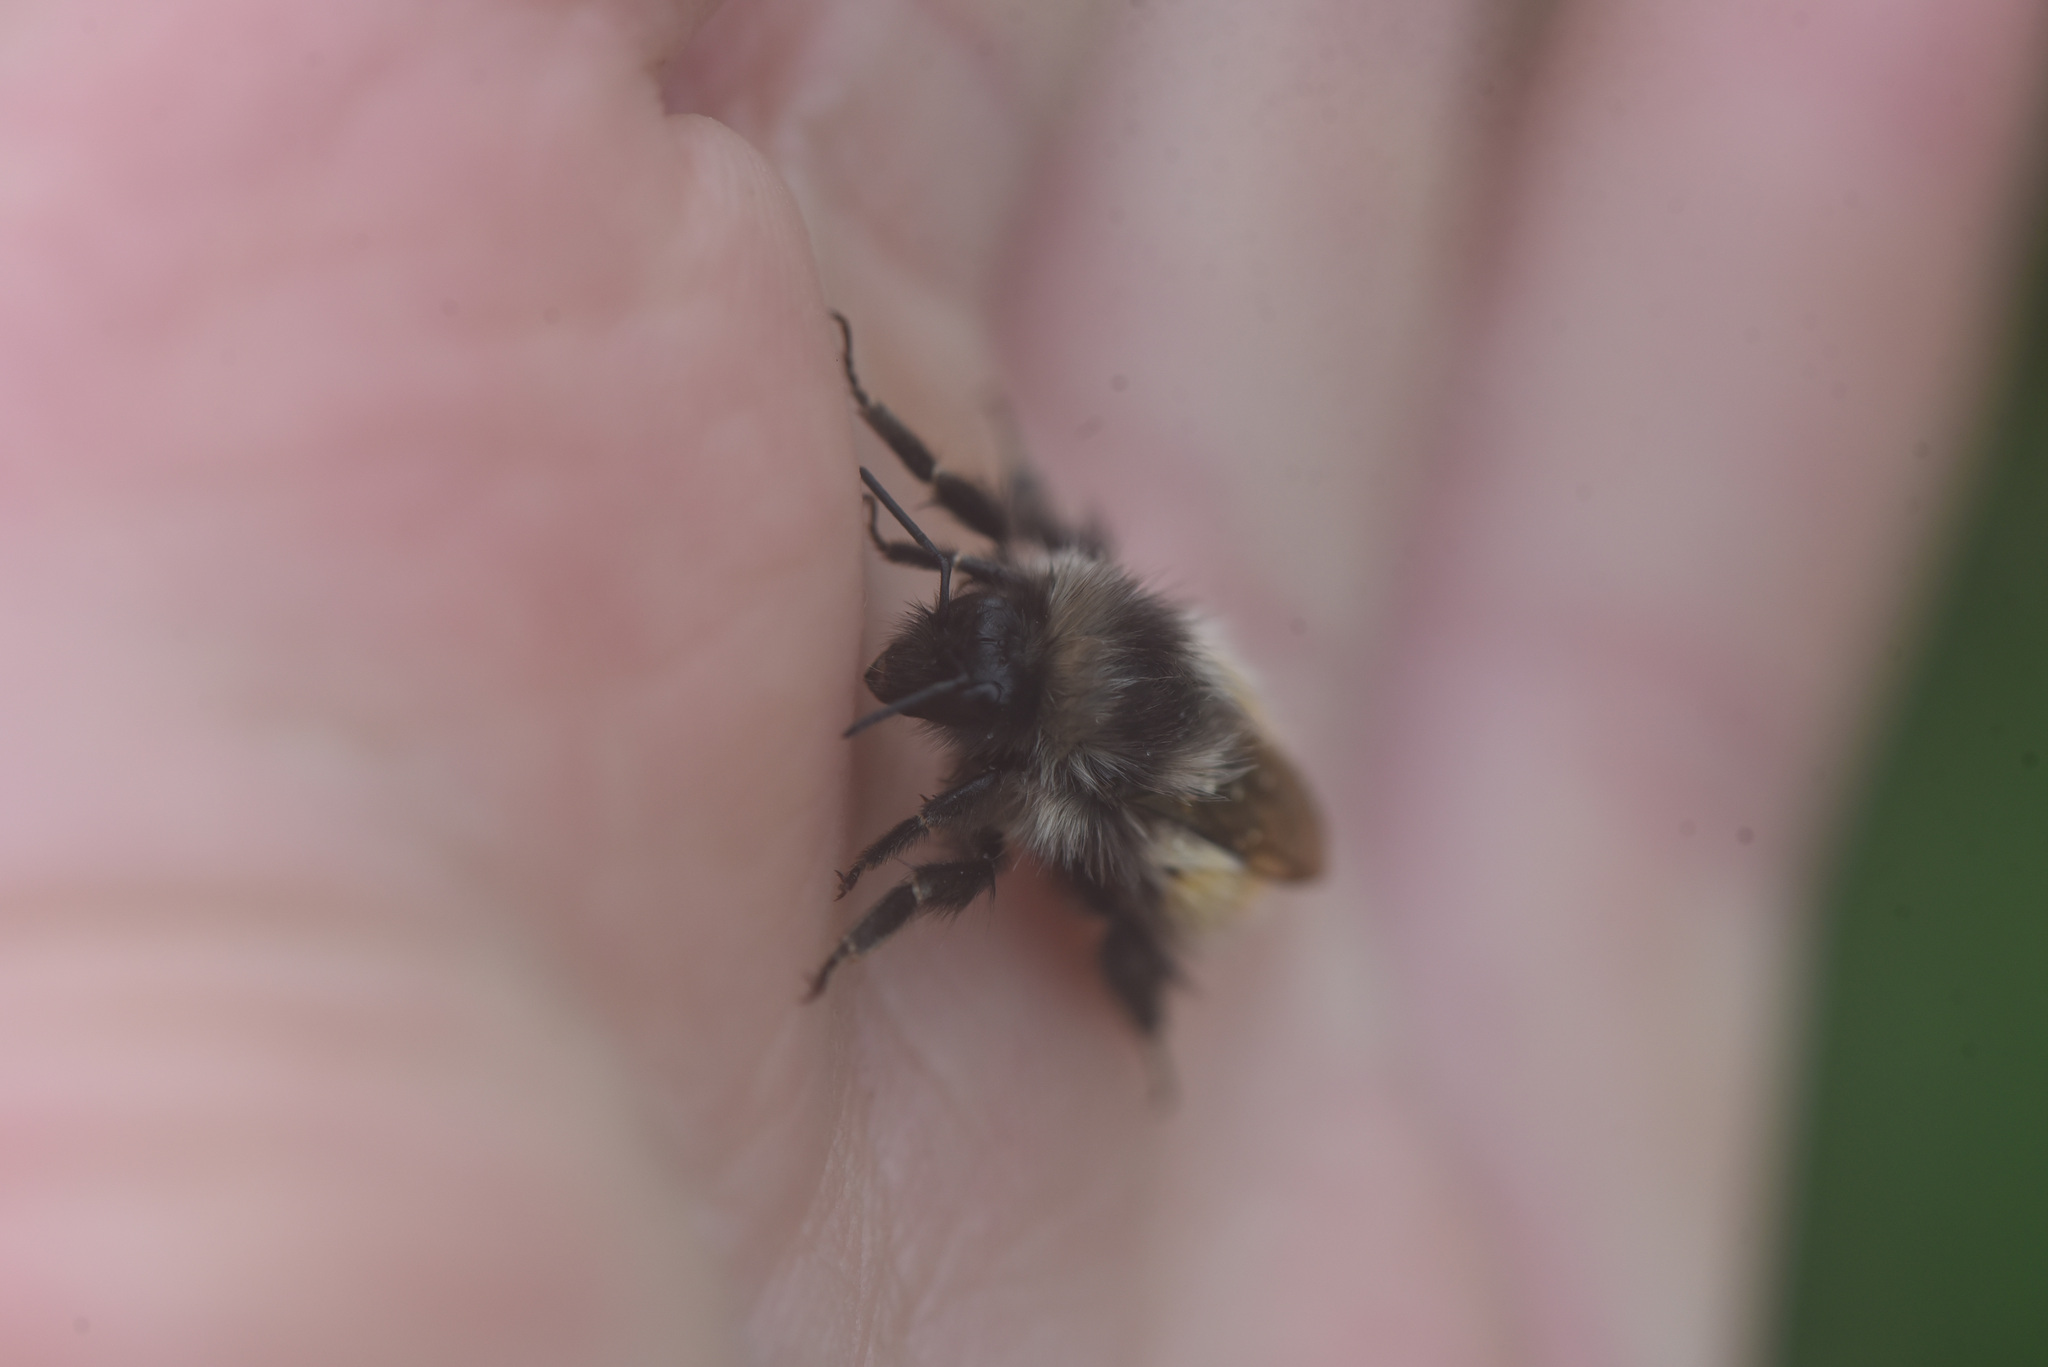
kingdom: Animalia
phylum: Arthropoda
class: Insecta
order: Hymenoptera
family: Apidae
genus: Bombus
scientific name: Bombus melanopygus
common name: Black tail bumble bee
